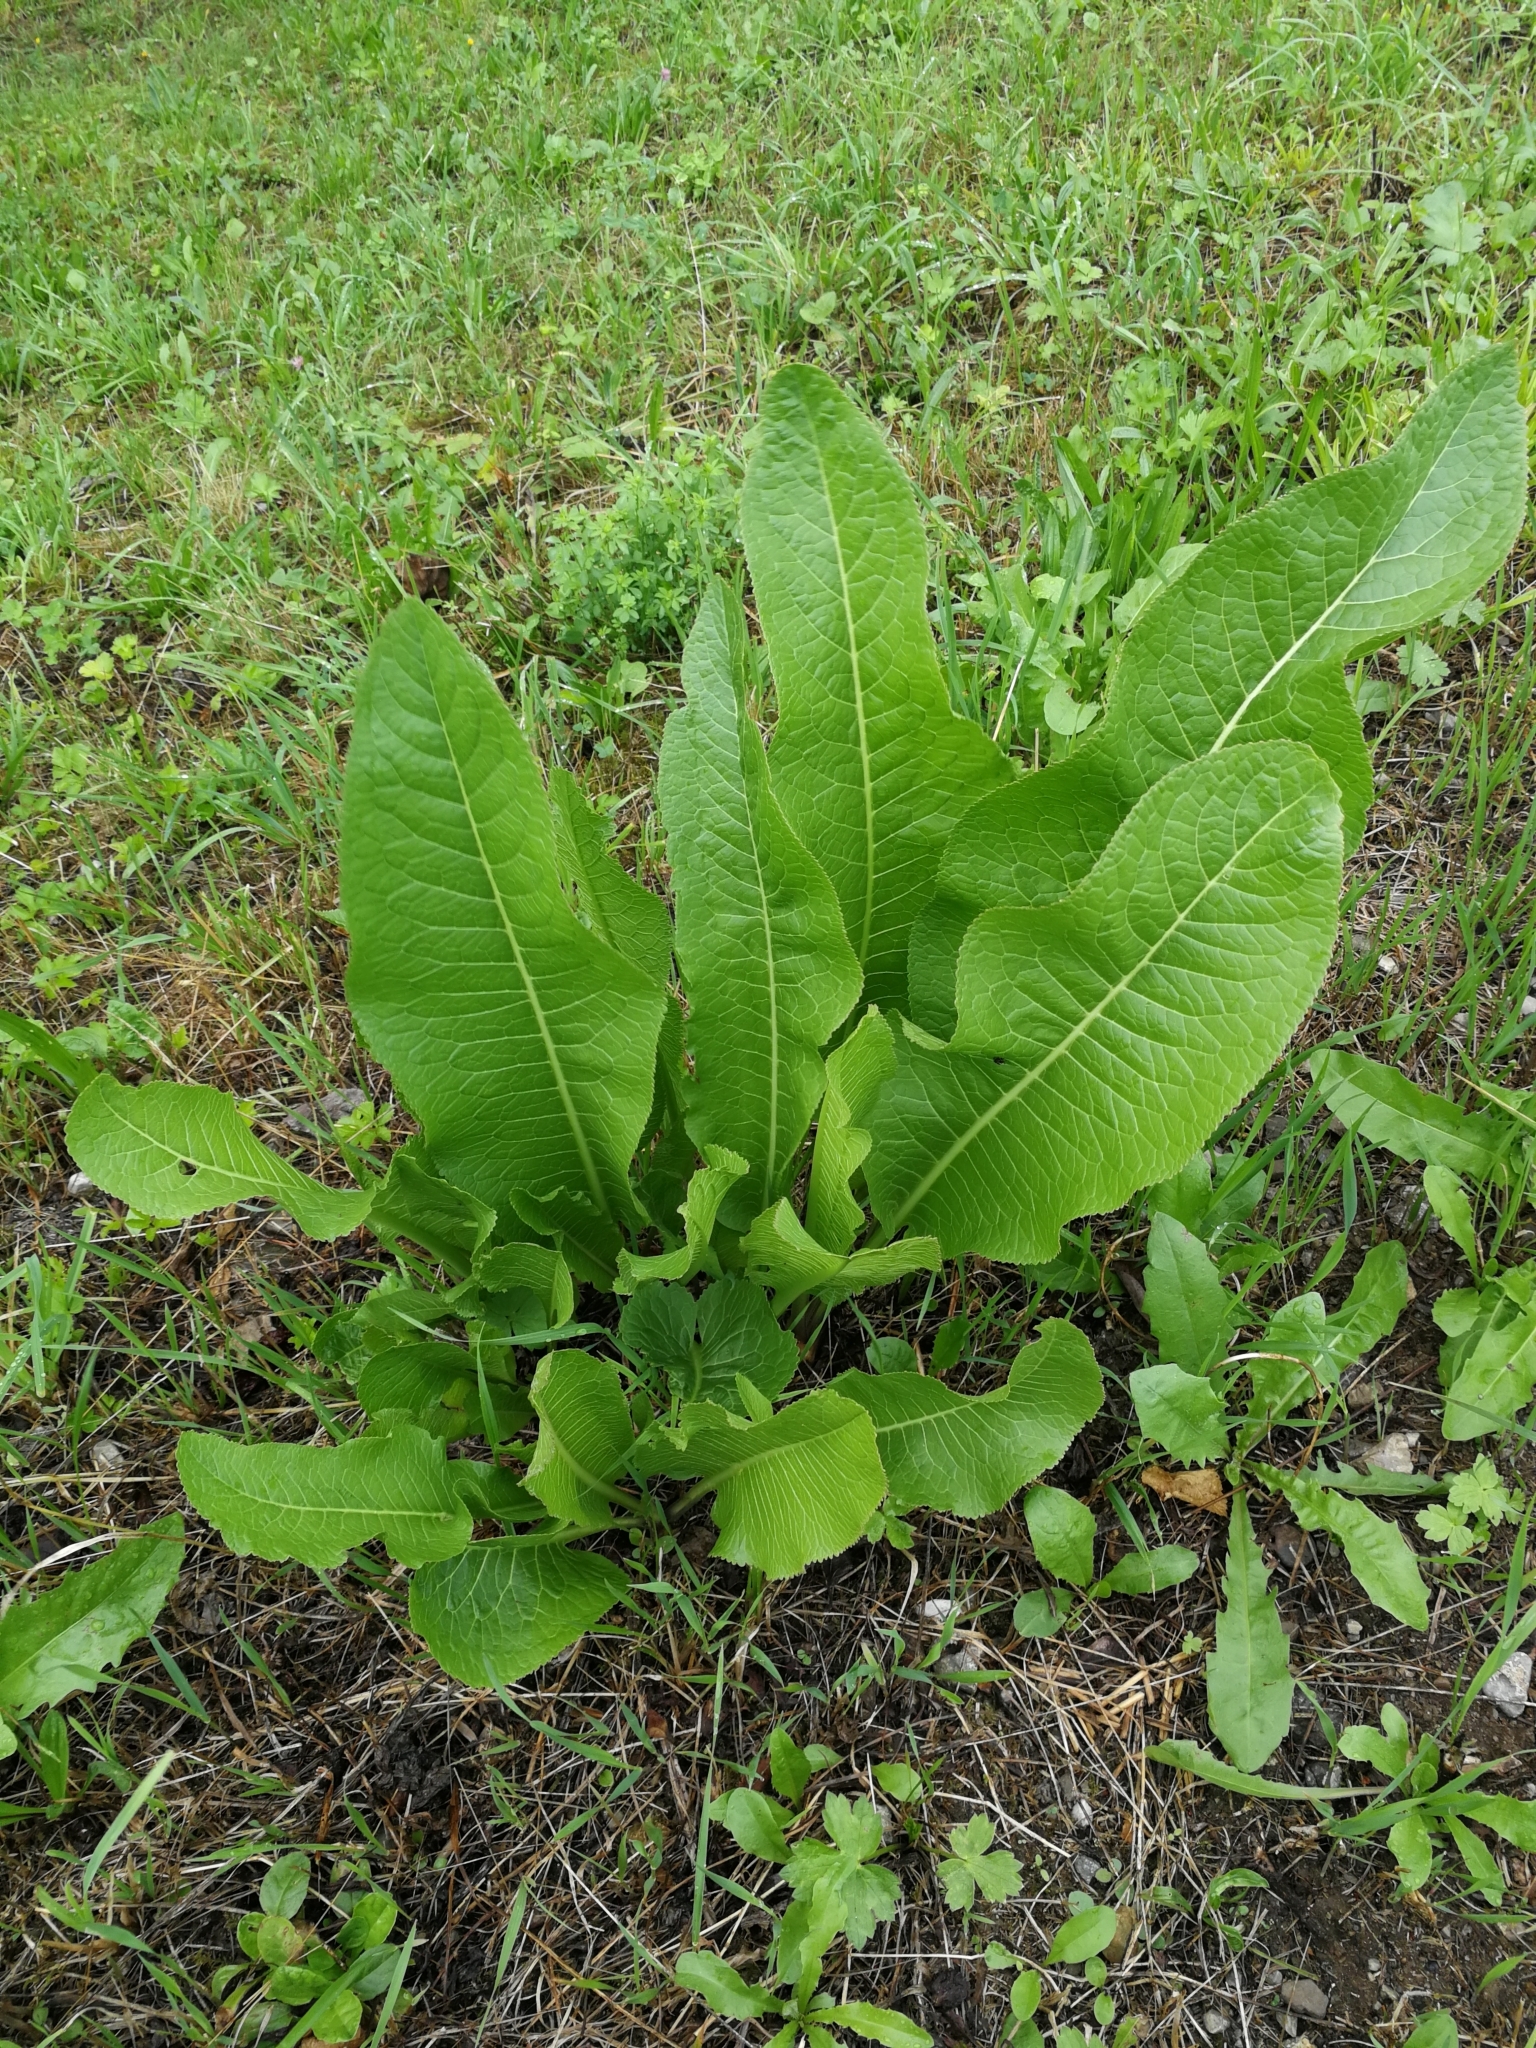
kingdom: Plantae
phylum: Tracheophyta
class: Magnoliopsida
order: Brassicales
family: Brassicaceae
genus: Armoracia
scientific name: Armoracia rusticana
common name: Horseradish
